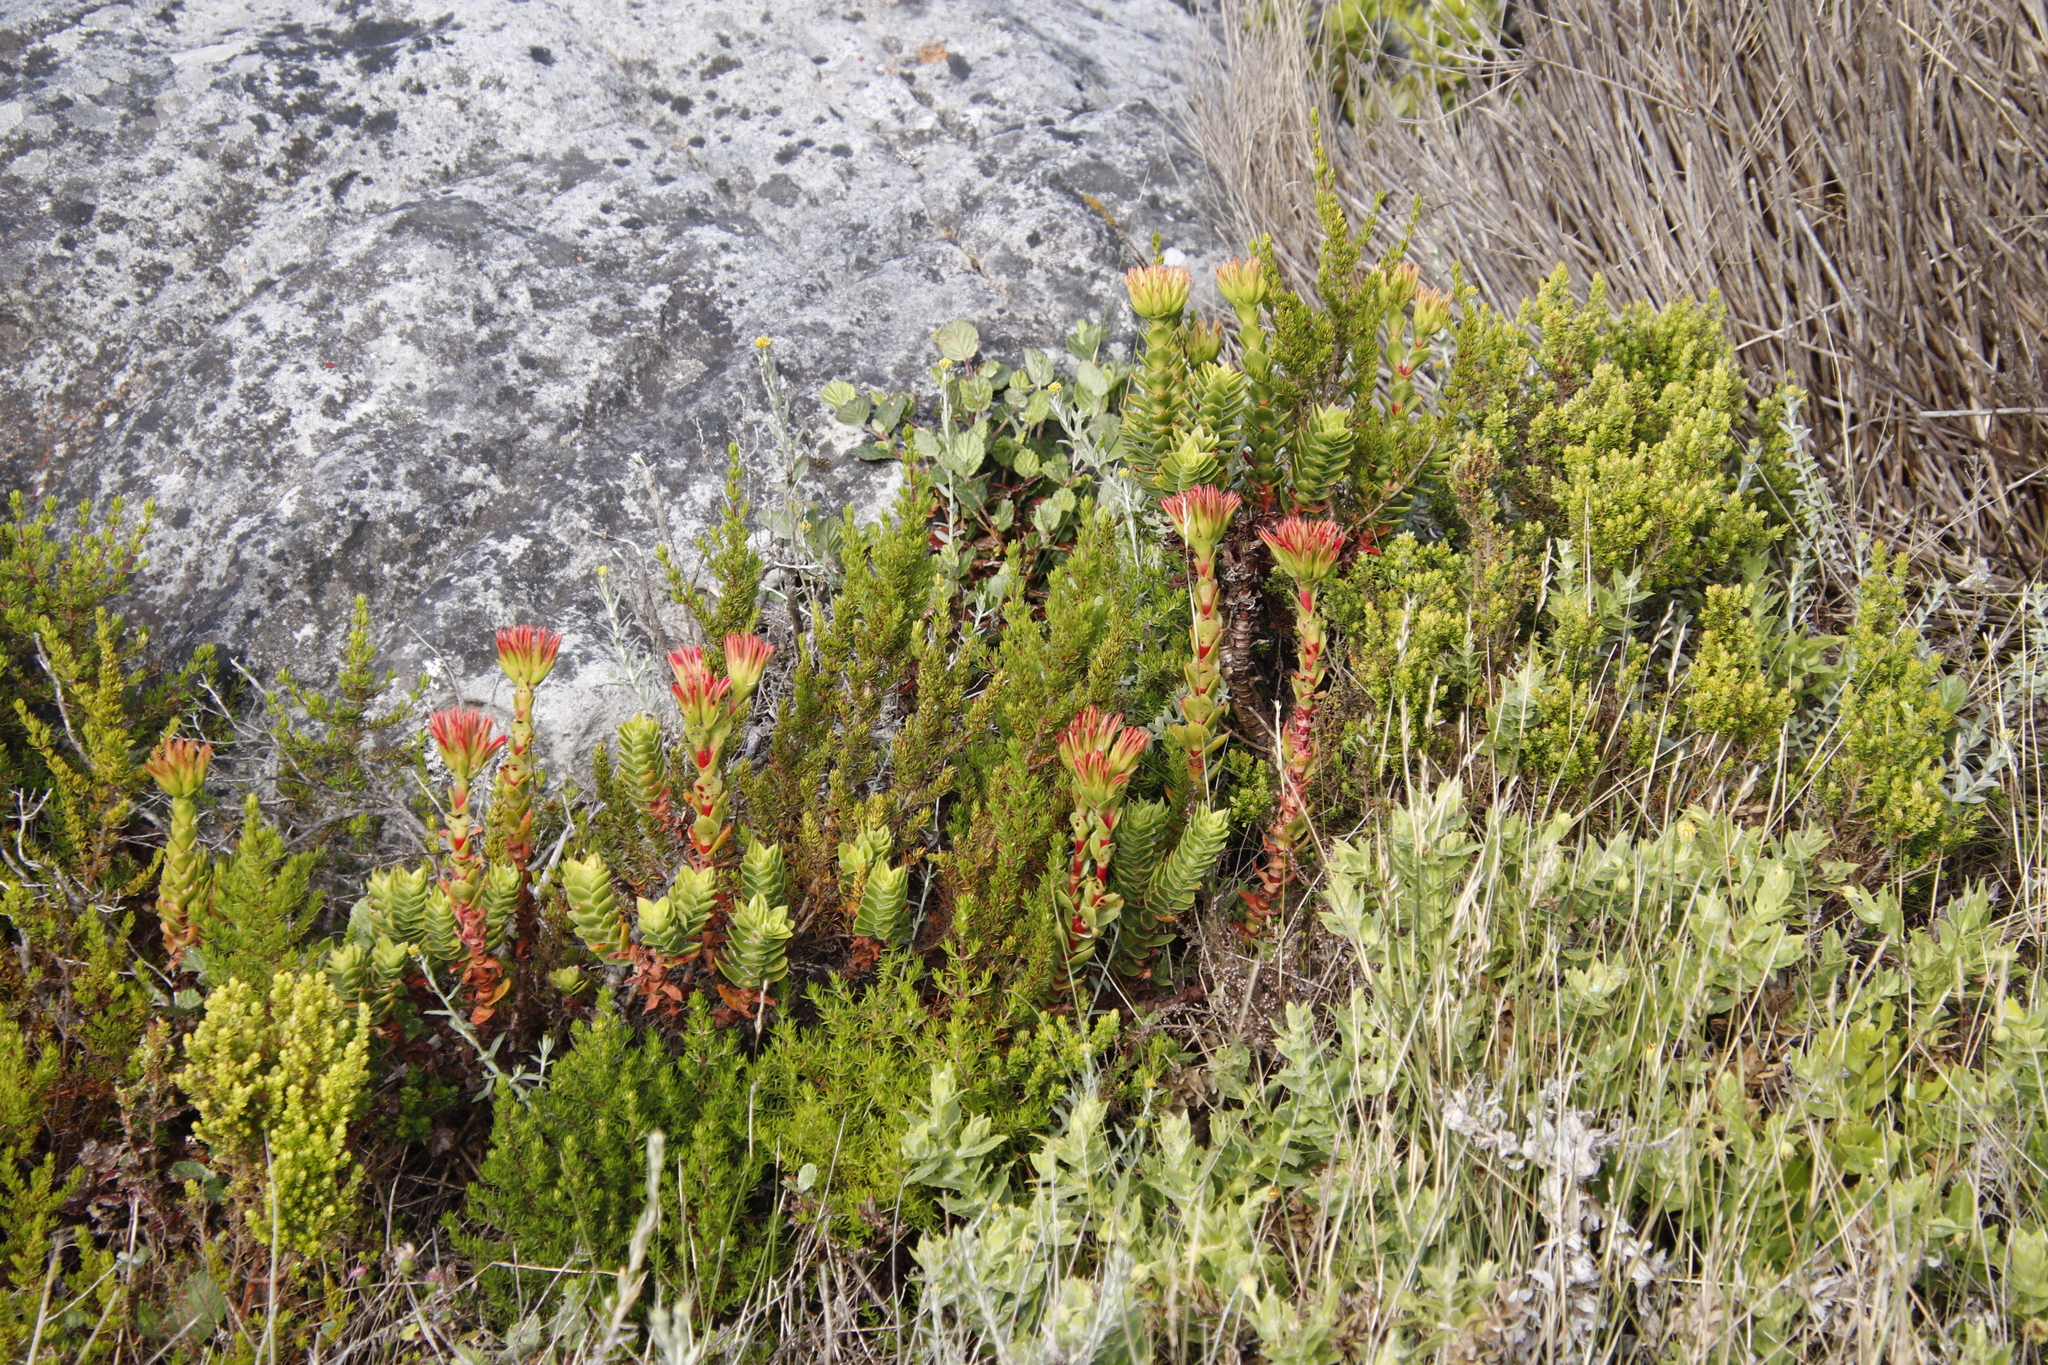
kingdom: Plantae
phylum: Tracheophyta
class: Magnoliopsida
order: Saxifragales
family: Crassulaceae
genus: Crassula
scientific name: Crassula coccinea
